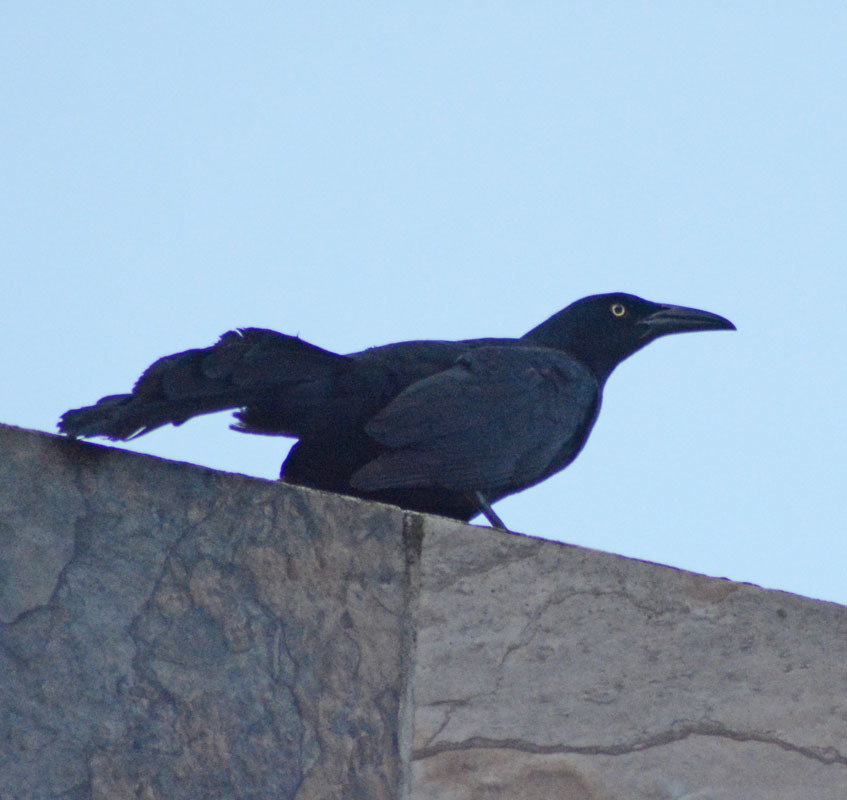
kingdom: Animalia
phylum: Chordata
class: Aves
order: Passeriformes
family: Icteridae
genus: Quiscalus
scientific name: Quiscalus mexicanus
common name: Great-tailed grackle
